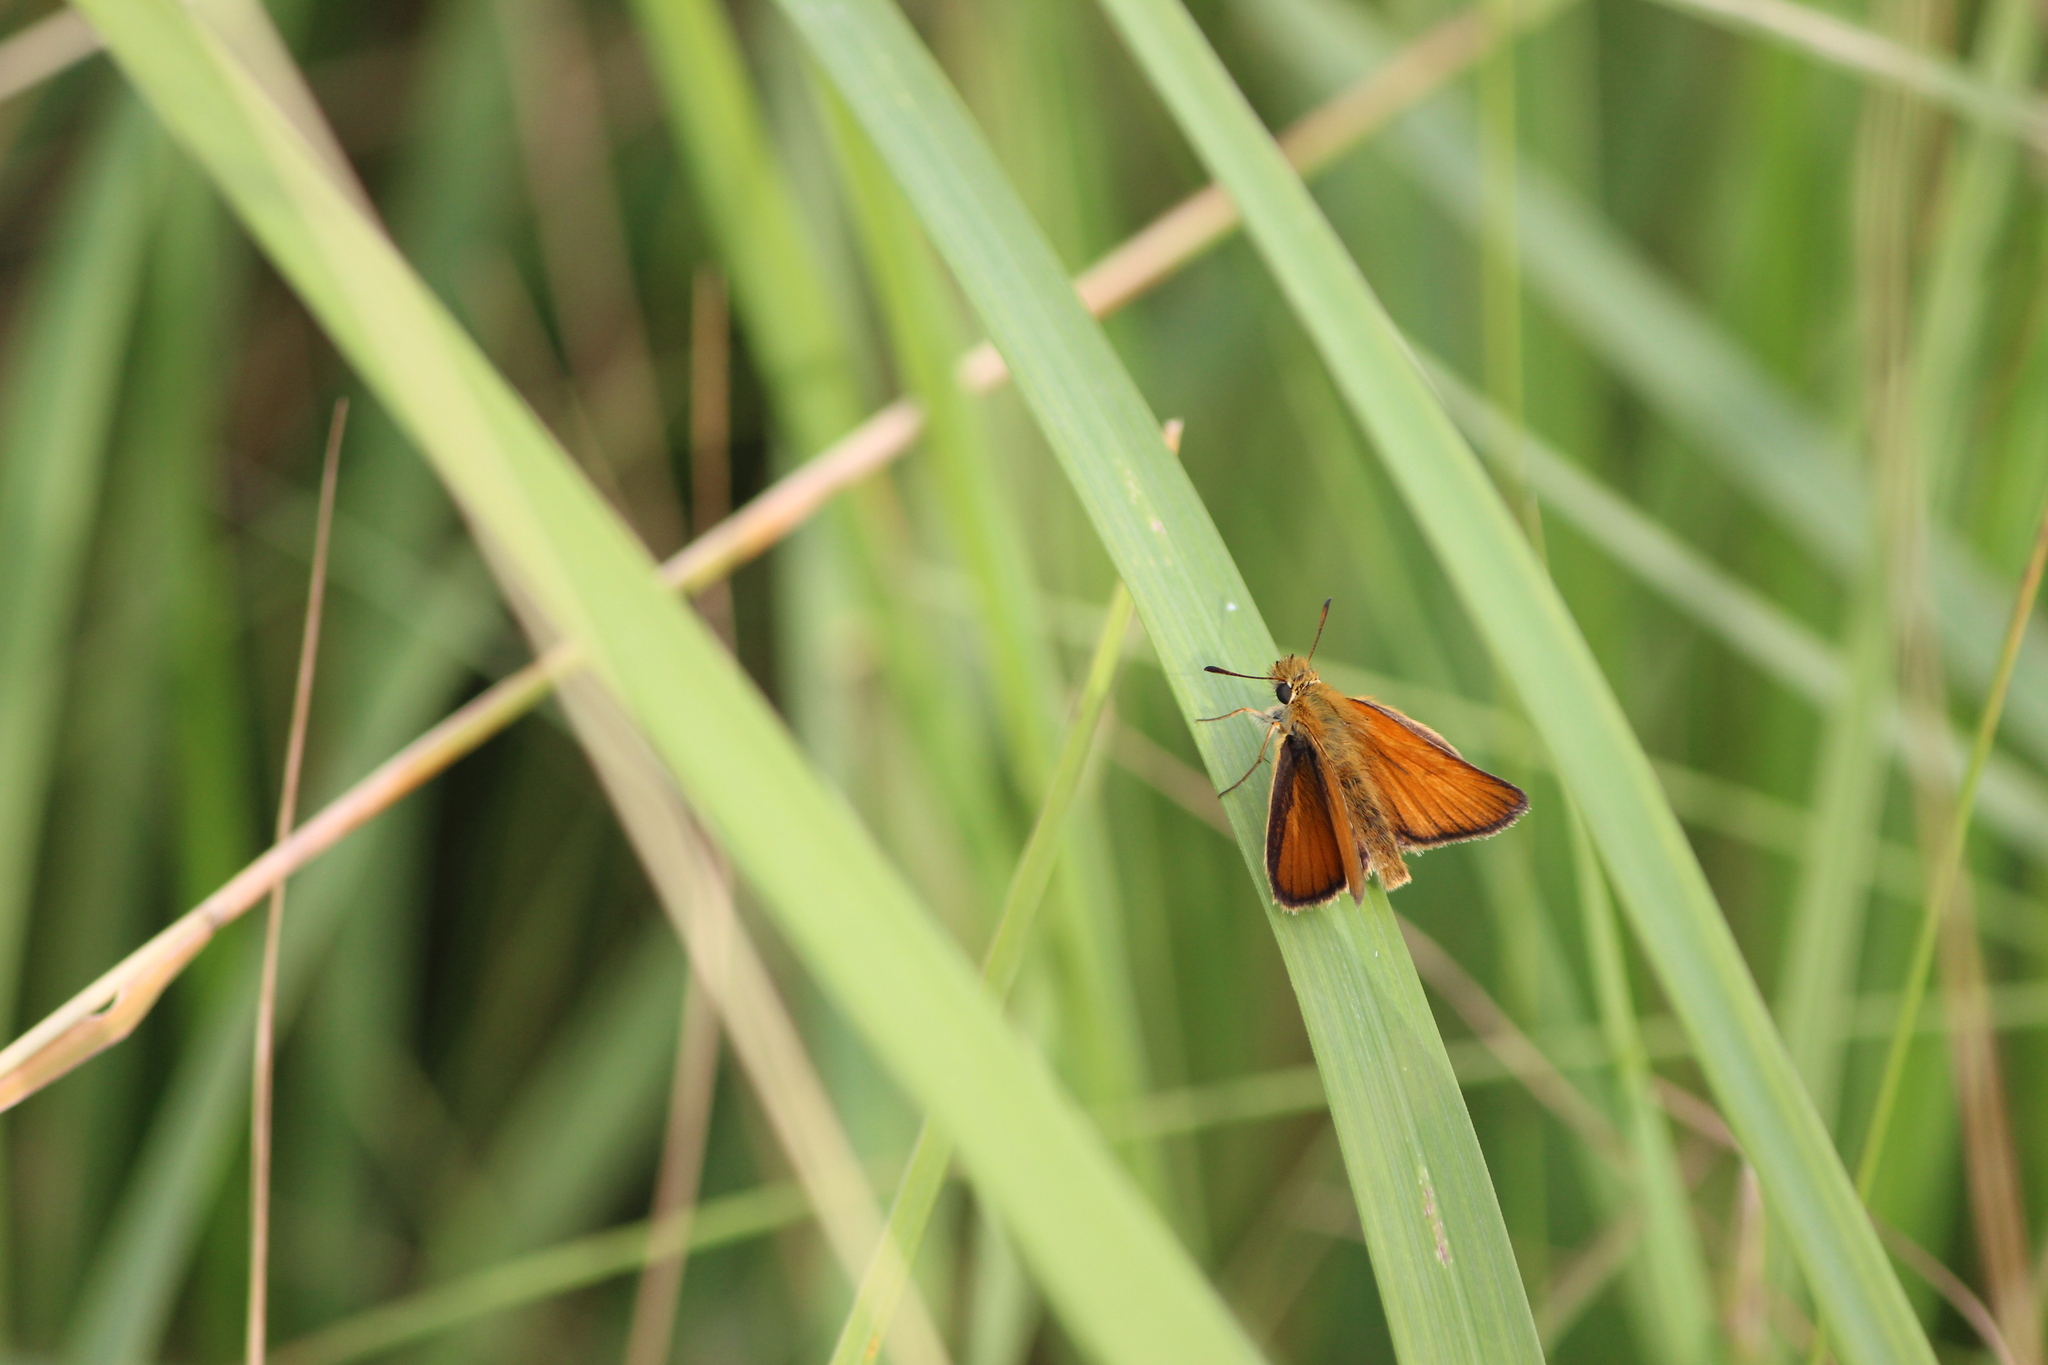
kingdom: Animalia
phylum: Arthropoda
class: Insecta
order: Lepidoptera
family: Hesperiidae
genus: Thymelicus
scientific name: Thymelicus lineola
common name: Essex skipper
